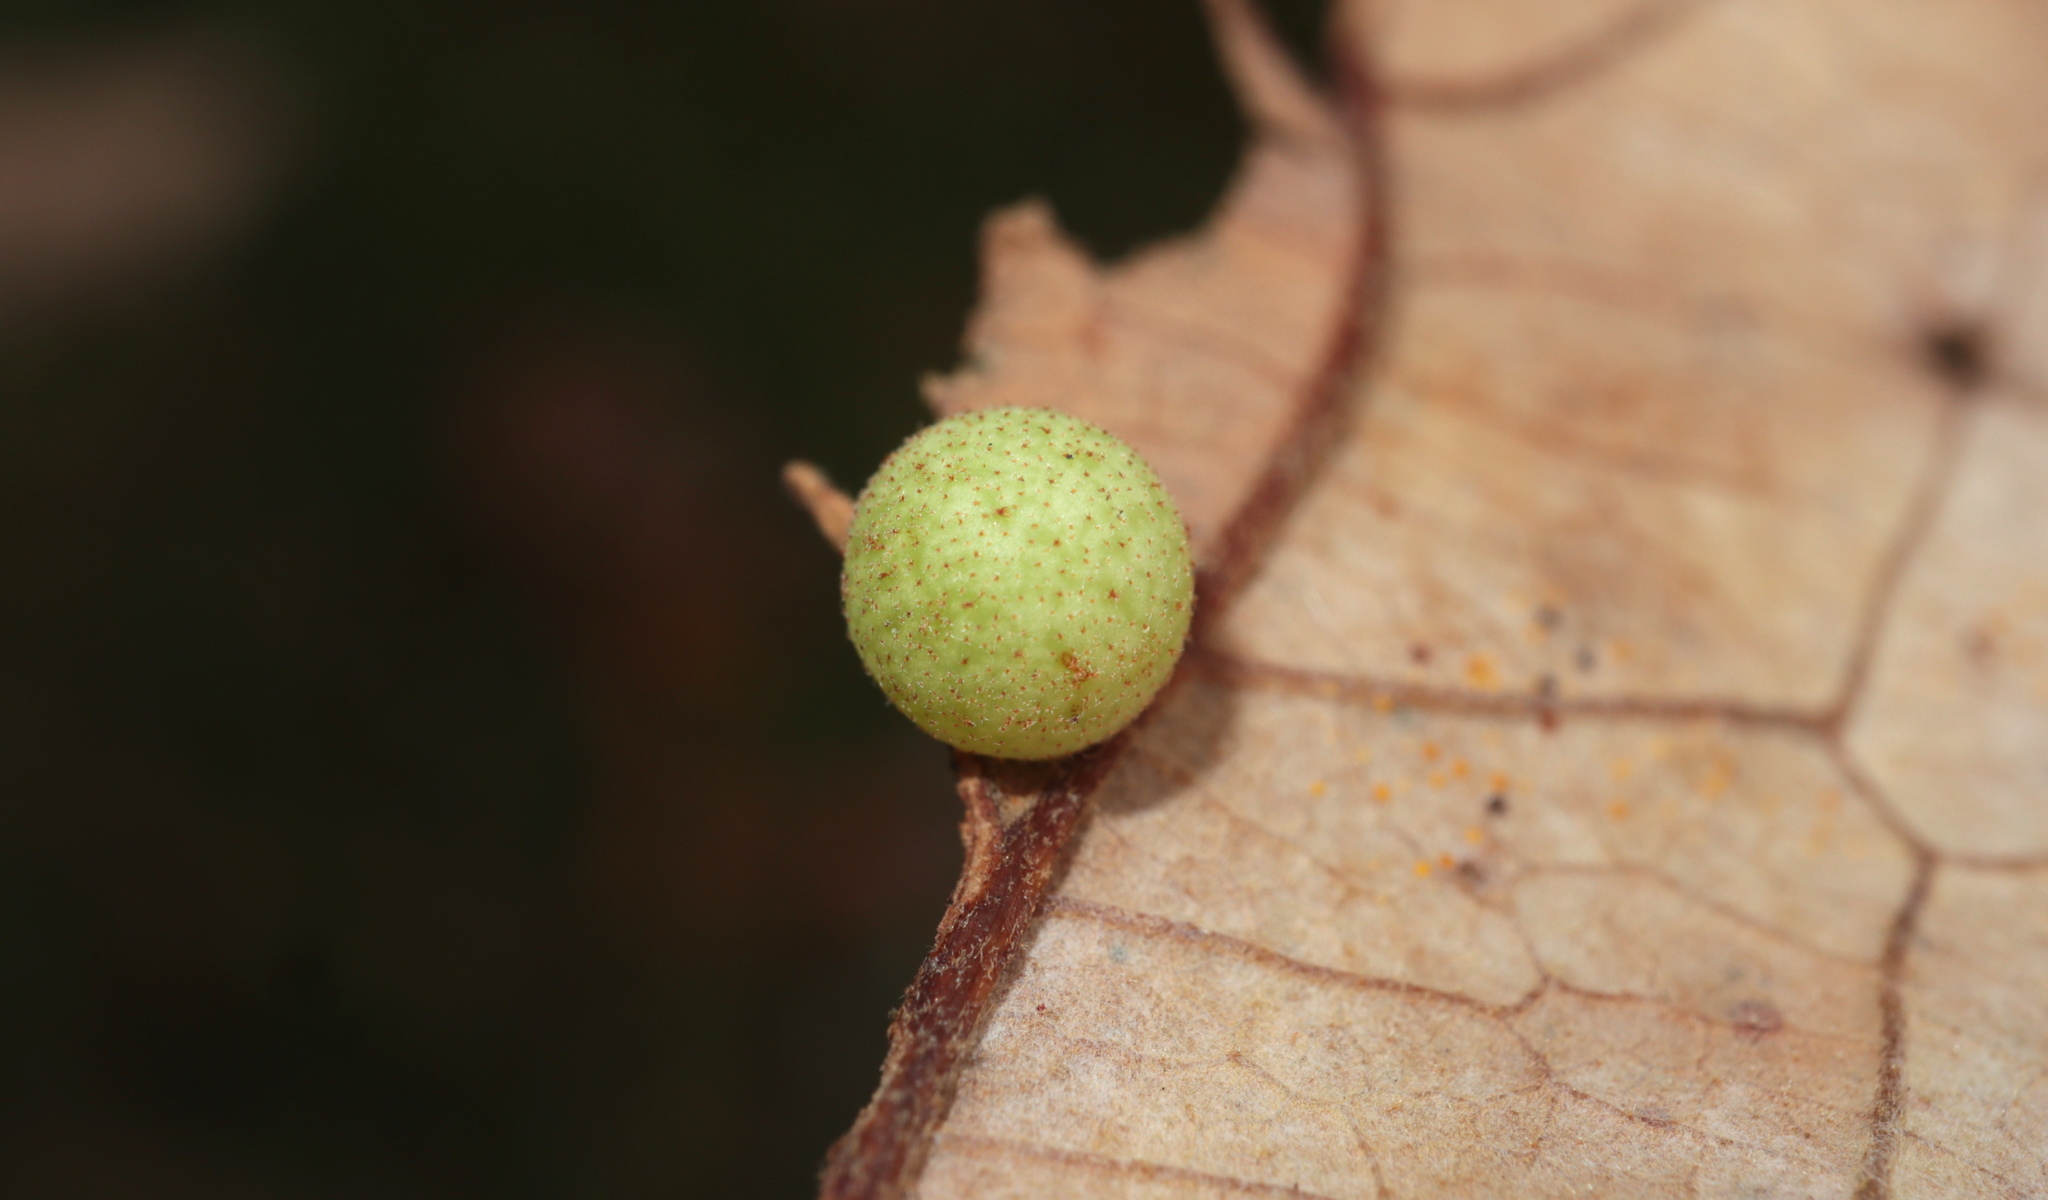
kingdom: Animalia
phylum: Arthropoda
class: Insecta
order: Hymenoptera
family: Cynipidae
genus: Atrusca
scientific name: Atrusca
